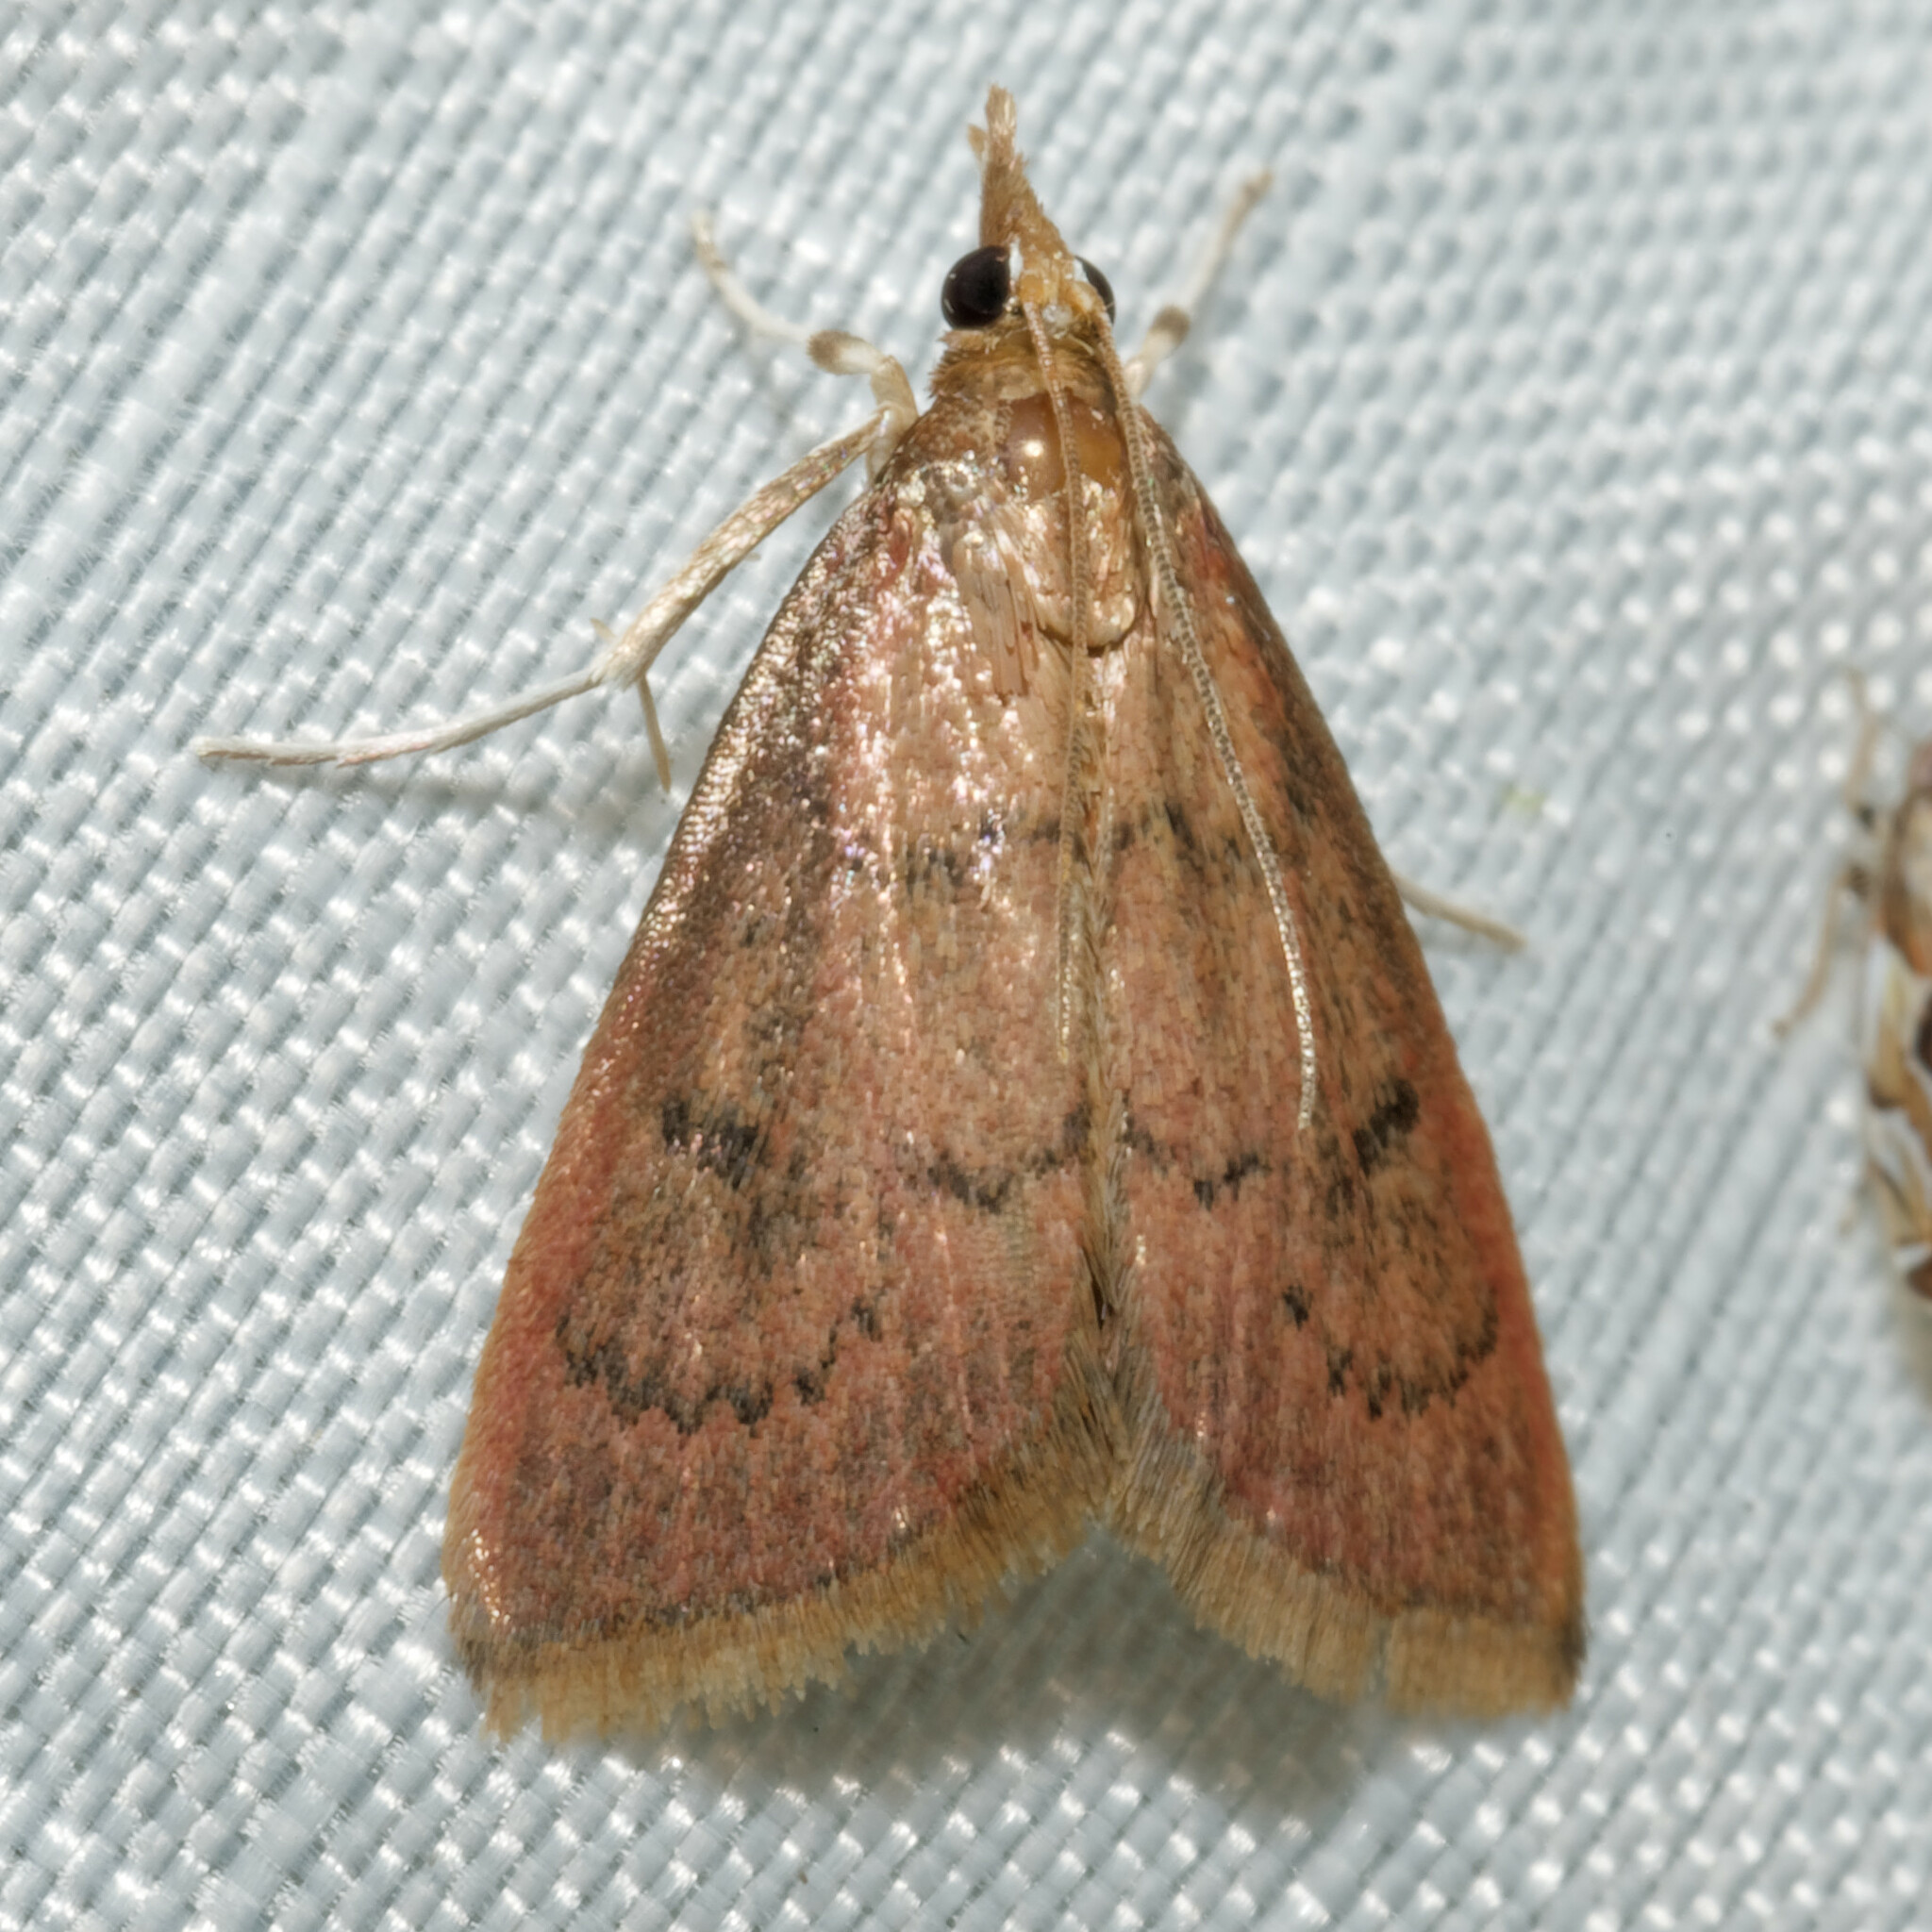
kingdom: Animalia
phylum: Arthropoda
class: Insecta
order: Lepidoptera
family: Crambidae
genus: Oenobotys
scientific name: Oenobotys vinotinctalis
